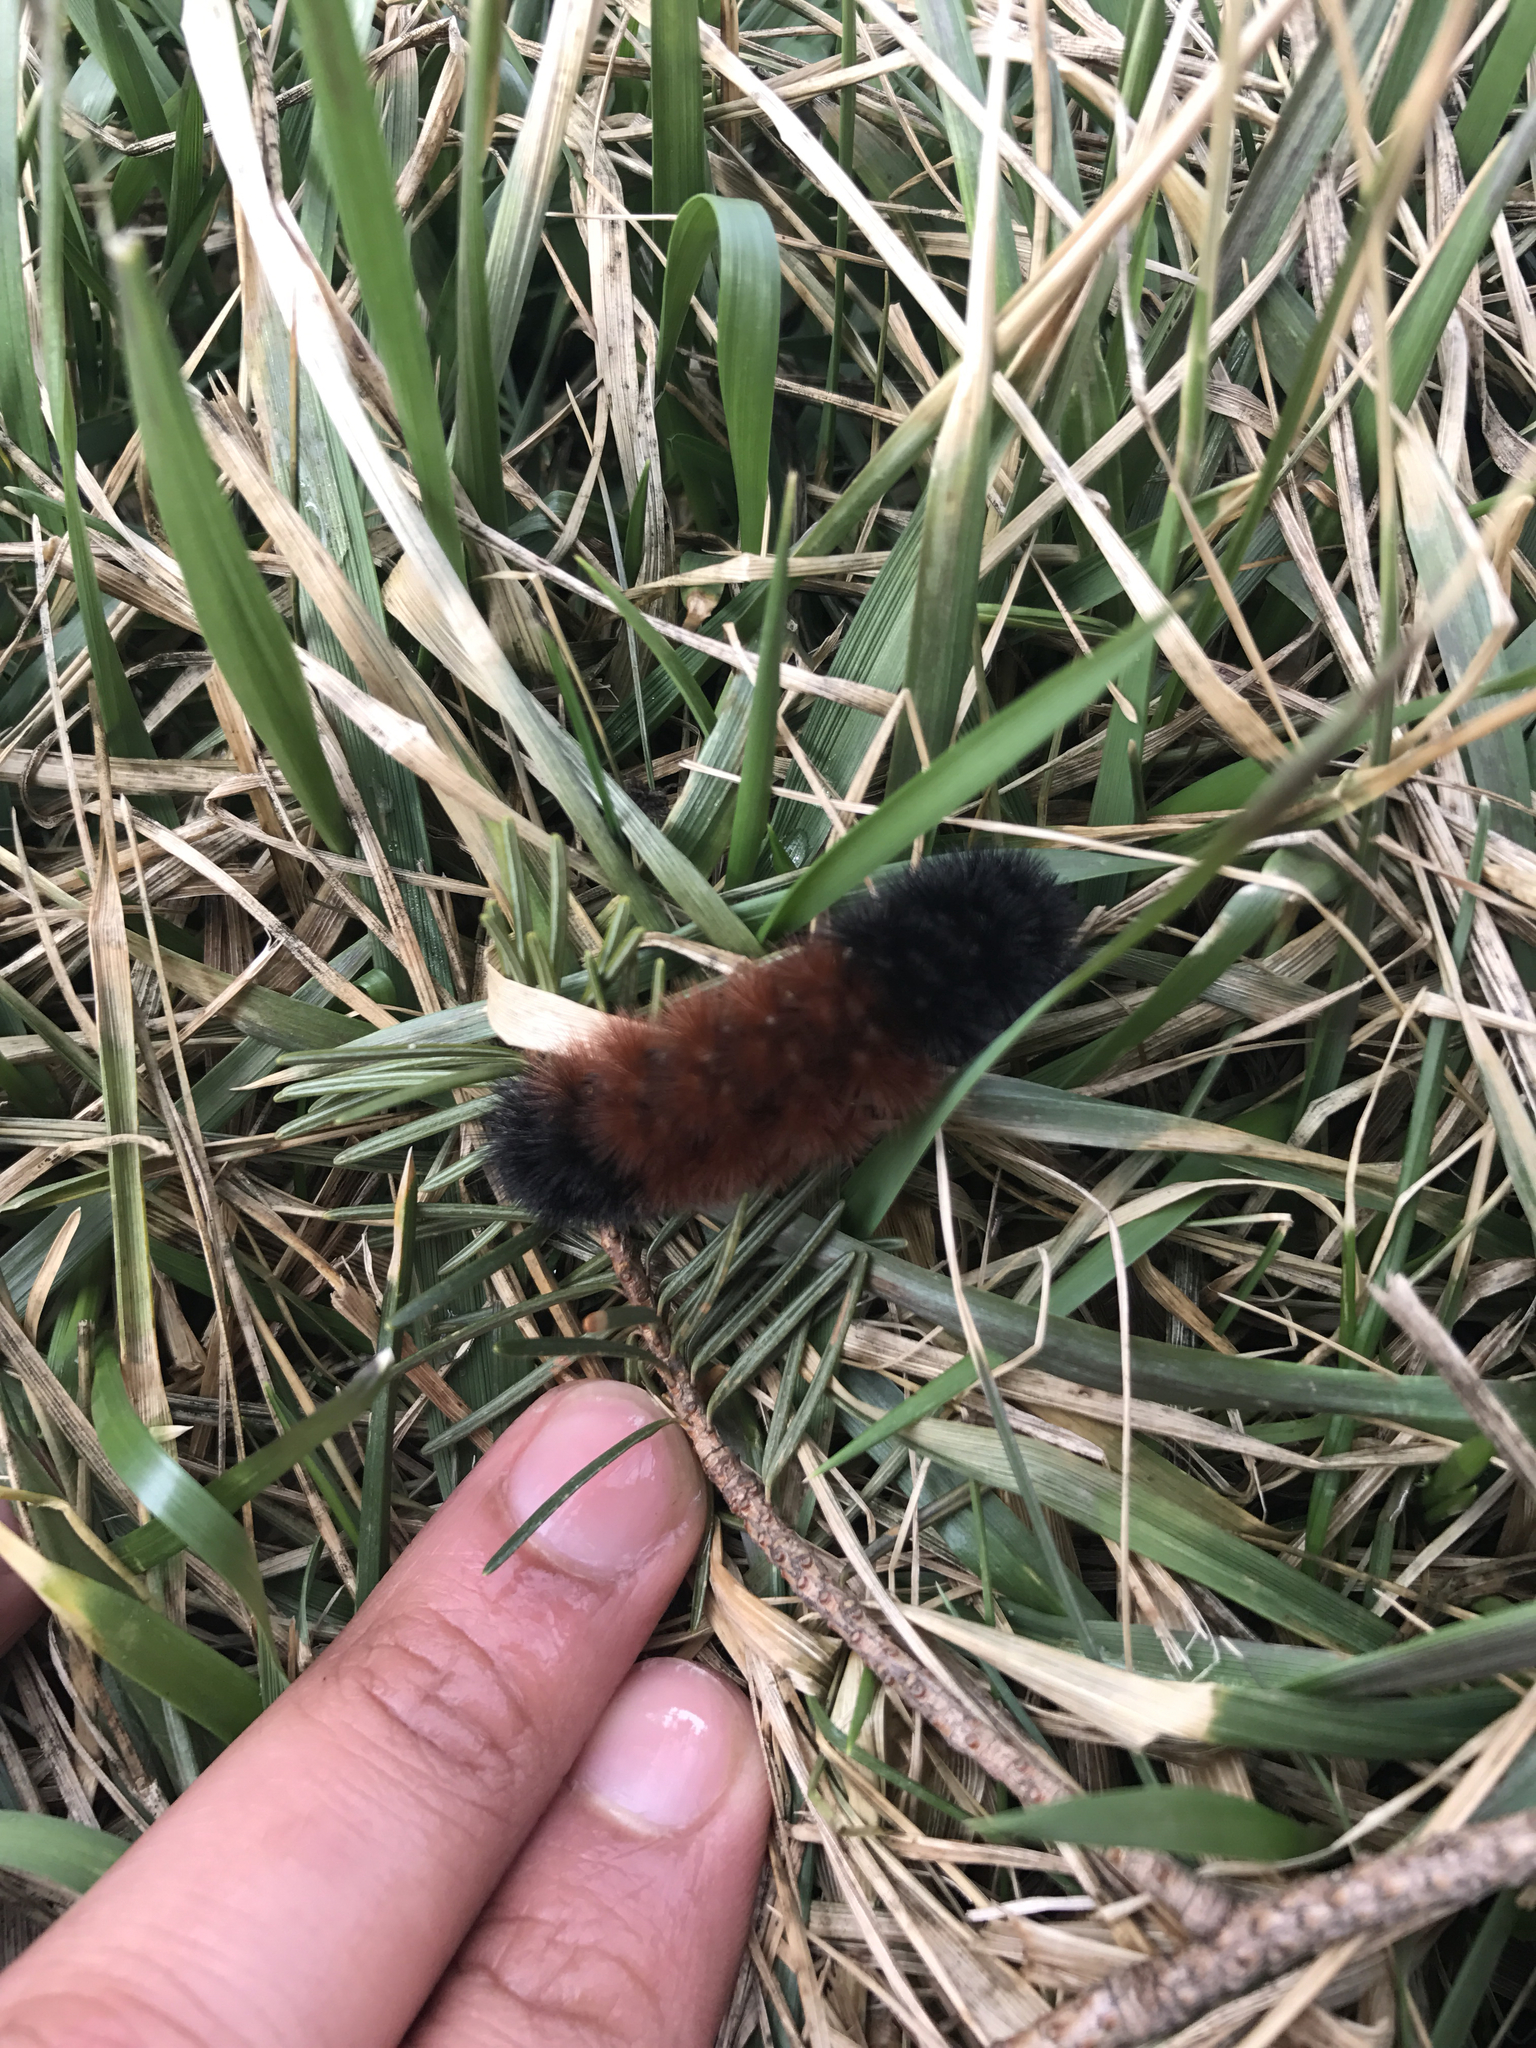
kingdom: Animalia
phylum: Arthropoda
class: Insecta
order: Lepidoptera
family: Erebidae
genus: Pyrrharctia
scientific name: Pyrrharctia isabella
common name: Isabella tiger moth
